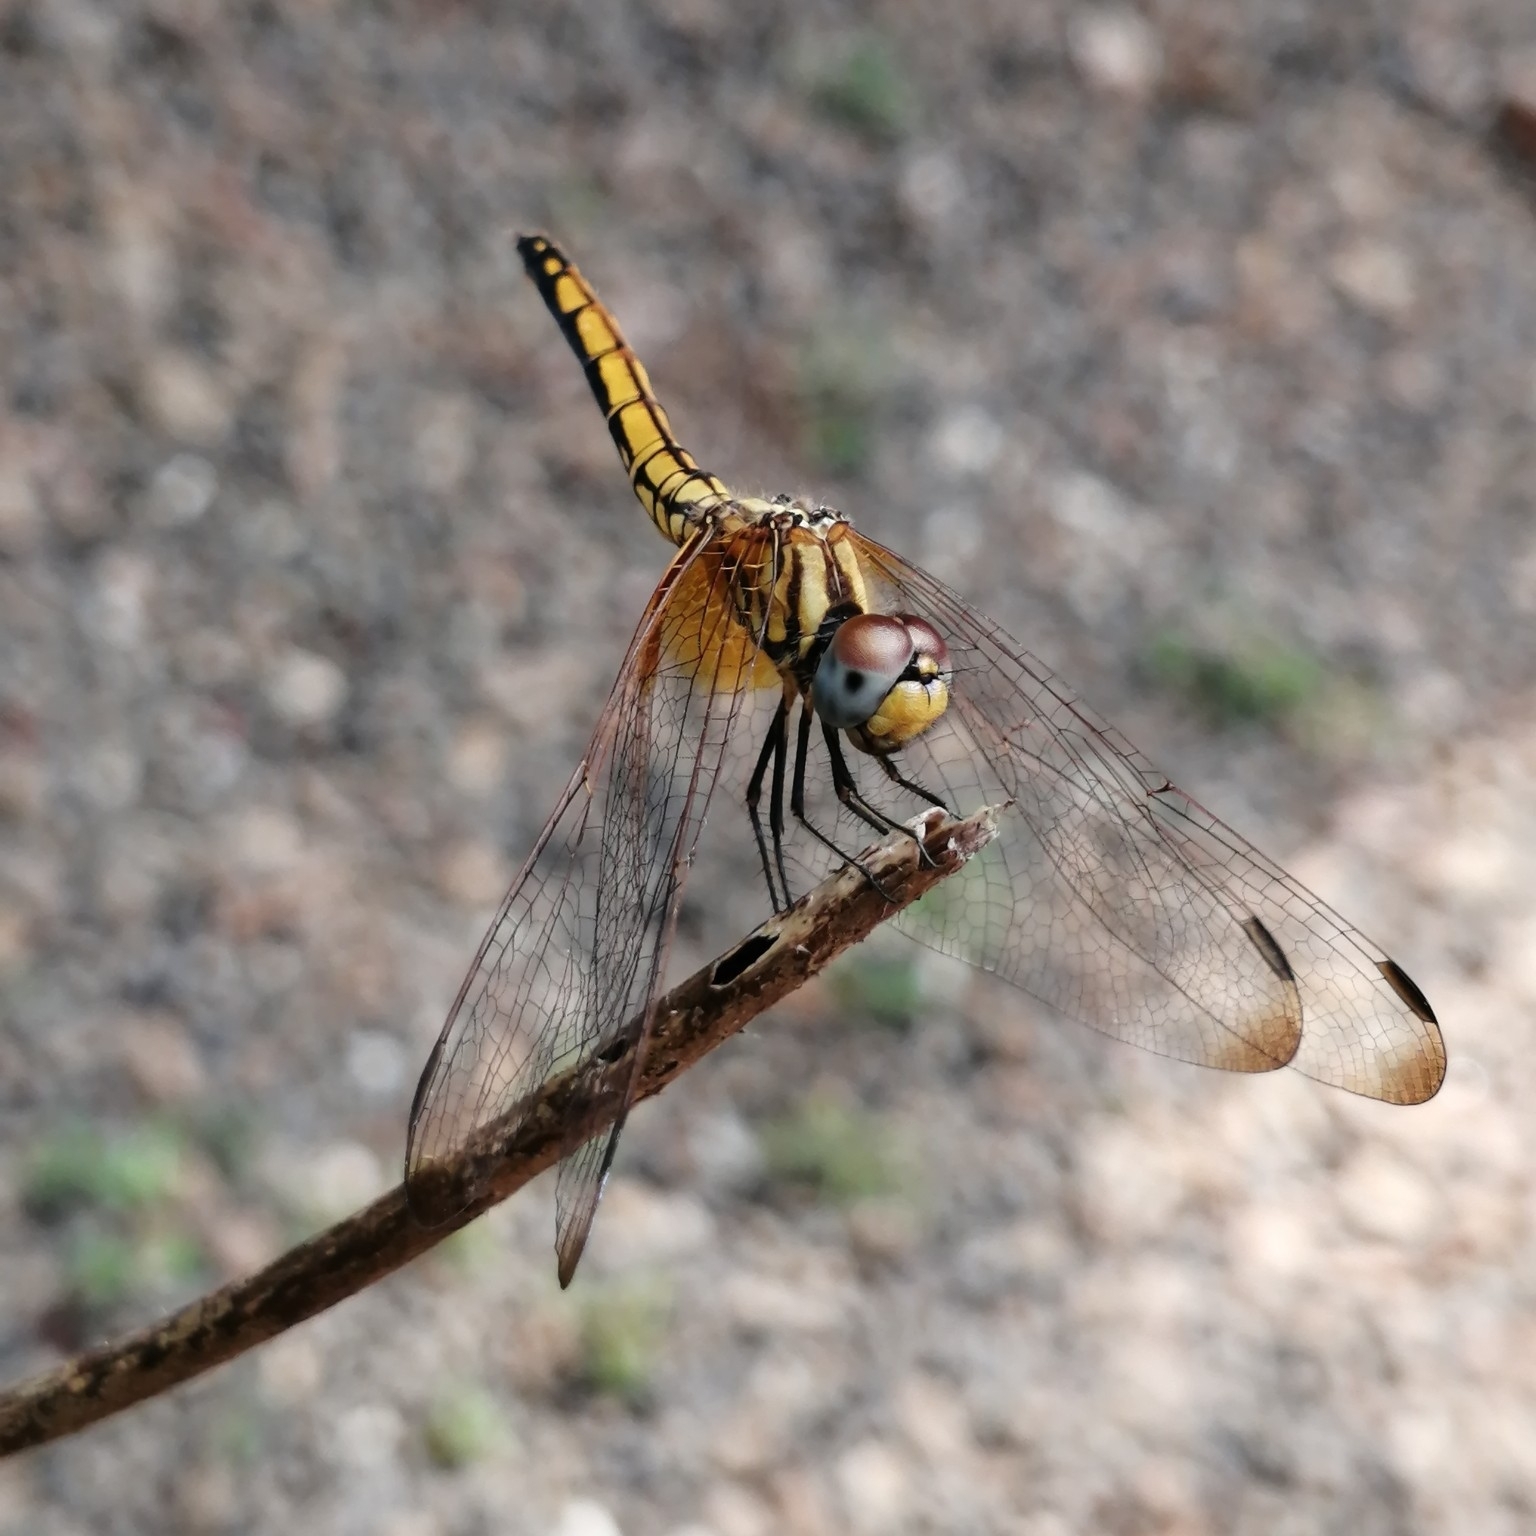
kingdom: Animalia
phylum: Arthropoda
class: Insecta
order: Odonata
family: Libellulidae
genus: Trithemis
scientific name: Trithemis aurora
